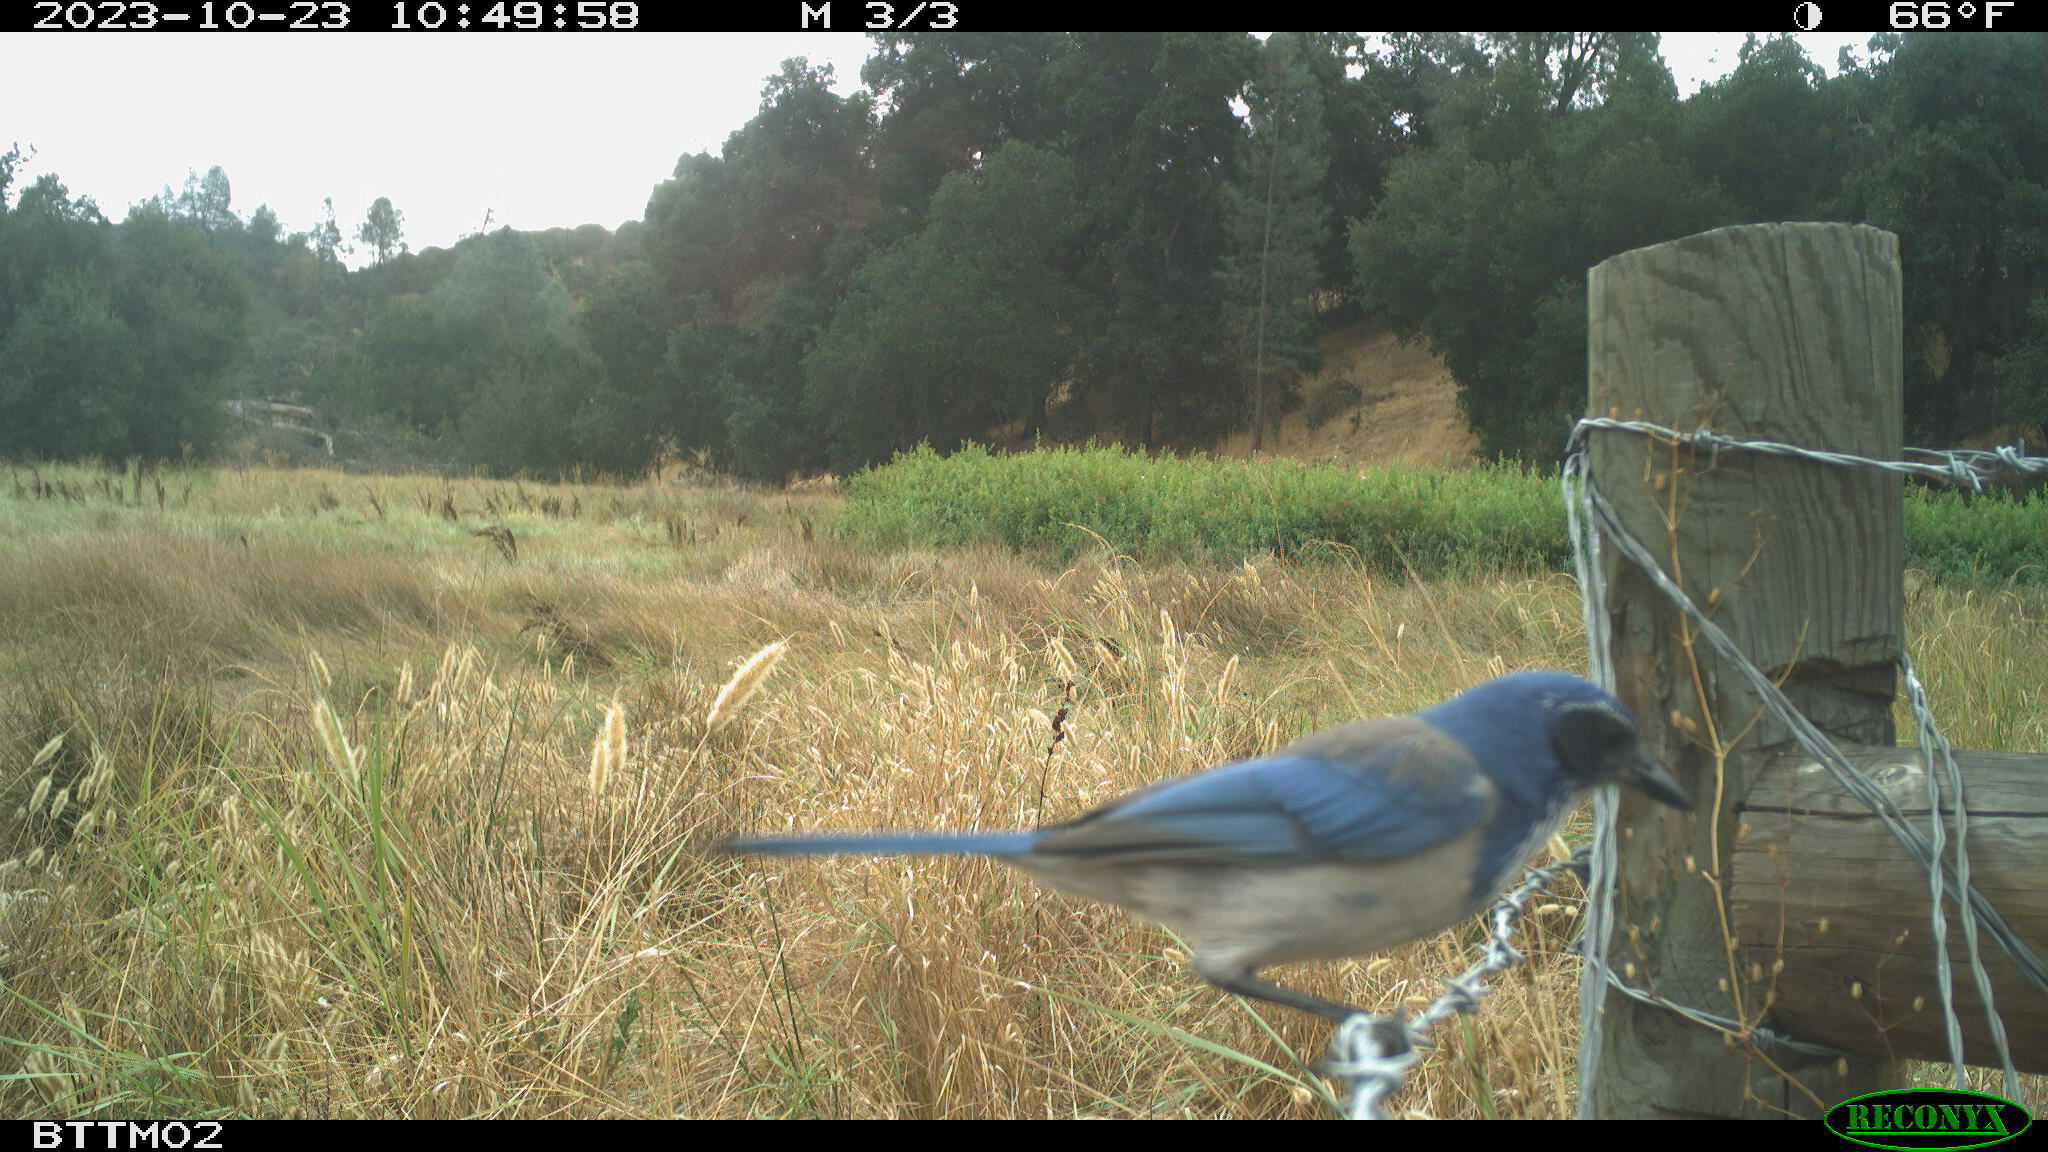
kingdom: Animalia
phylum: Chordata
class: Aves
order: Passeriformes
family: Corvidae
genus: Aphelocoma
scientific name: Aphelocoma californica
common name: California scrub-jay
